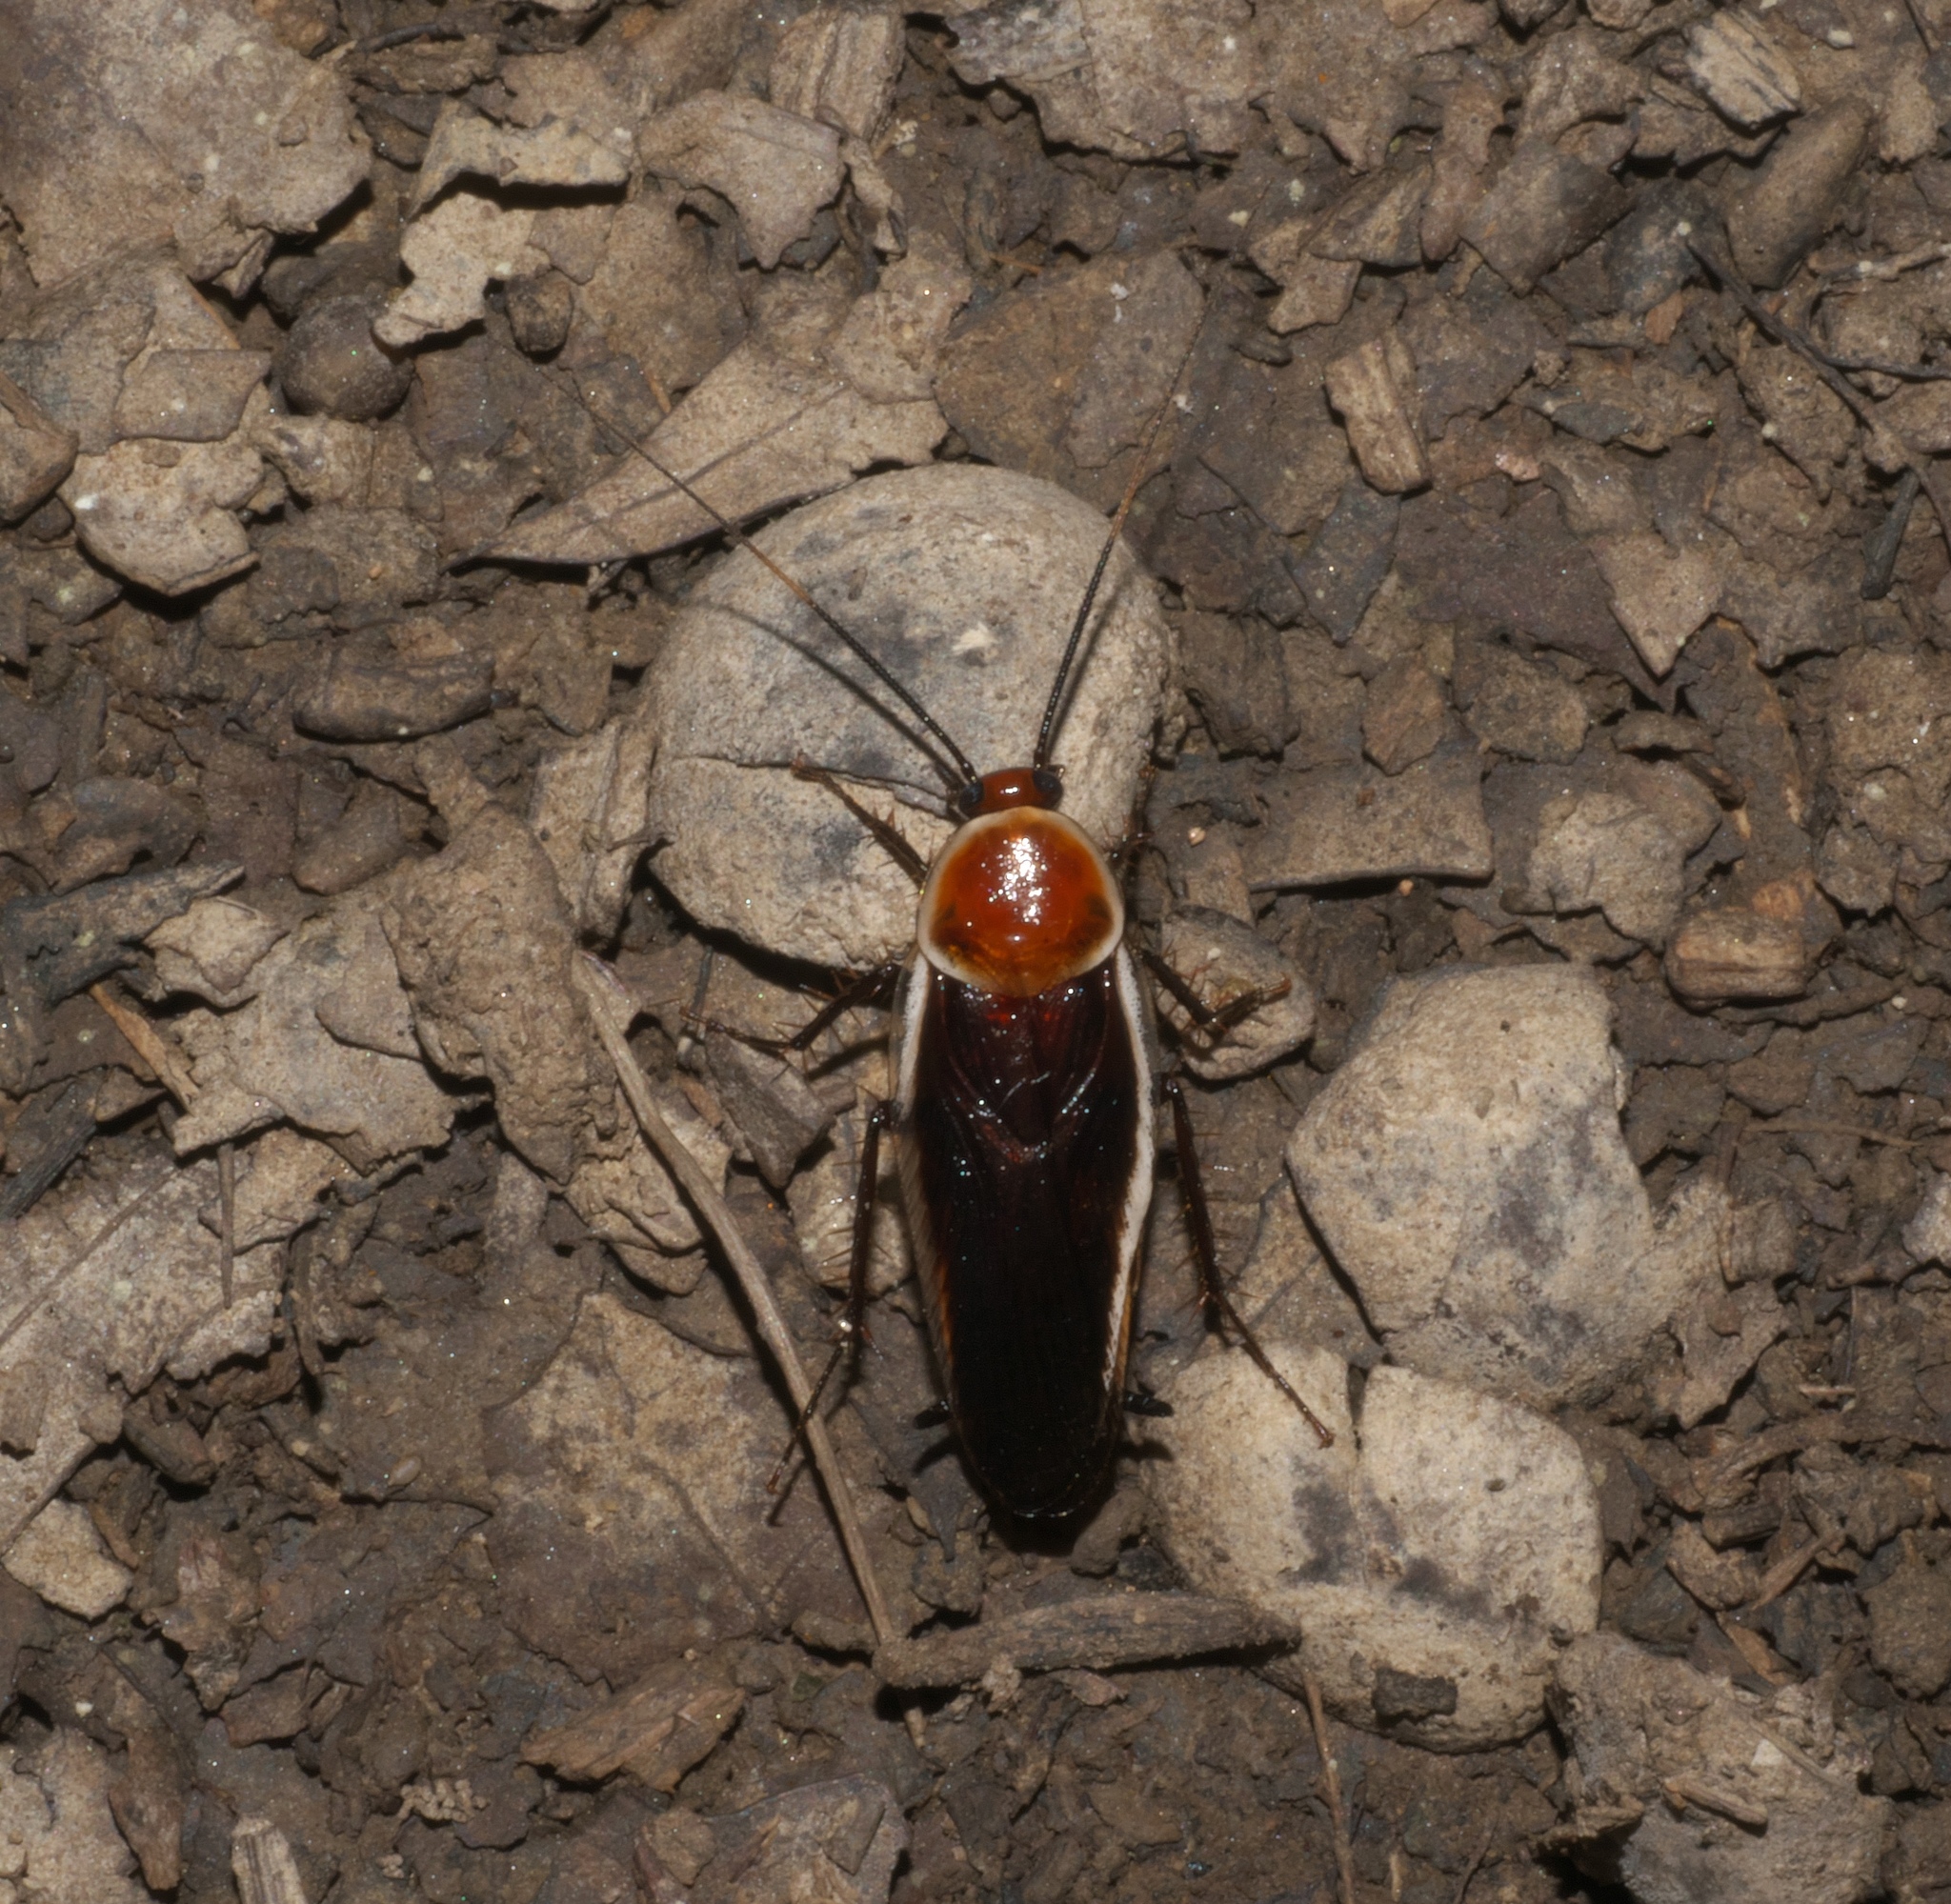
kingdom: Animalia
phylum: Arthropoda
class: Insecta
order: Blattodea
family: Ectobiidae
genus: Pseudomops
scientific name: Pseudomops septentrionalis
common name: Pale-bordered field cockroach
